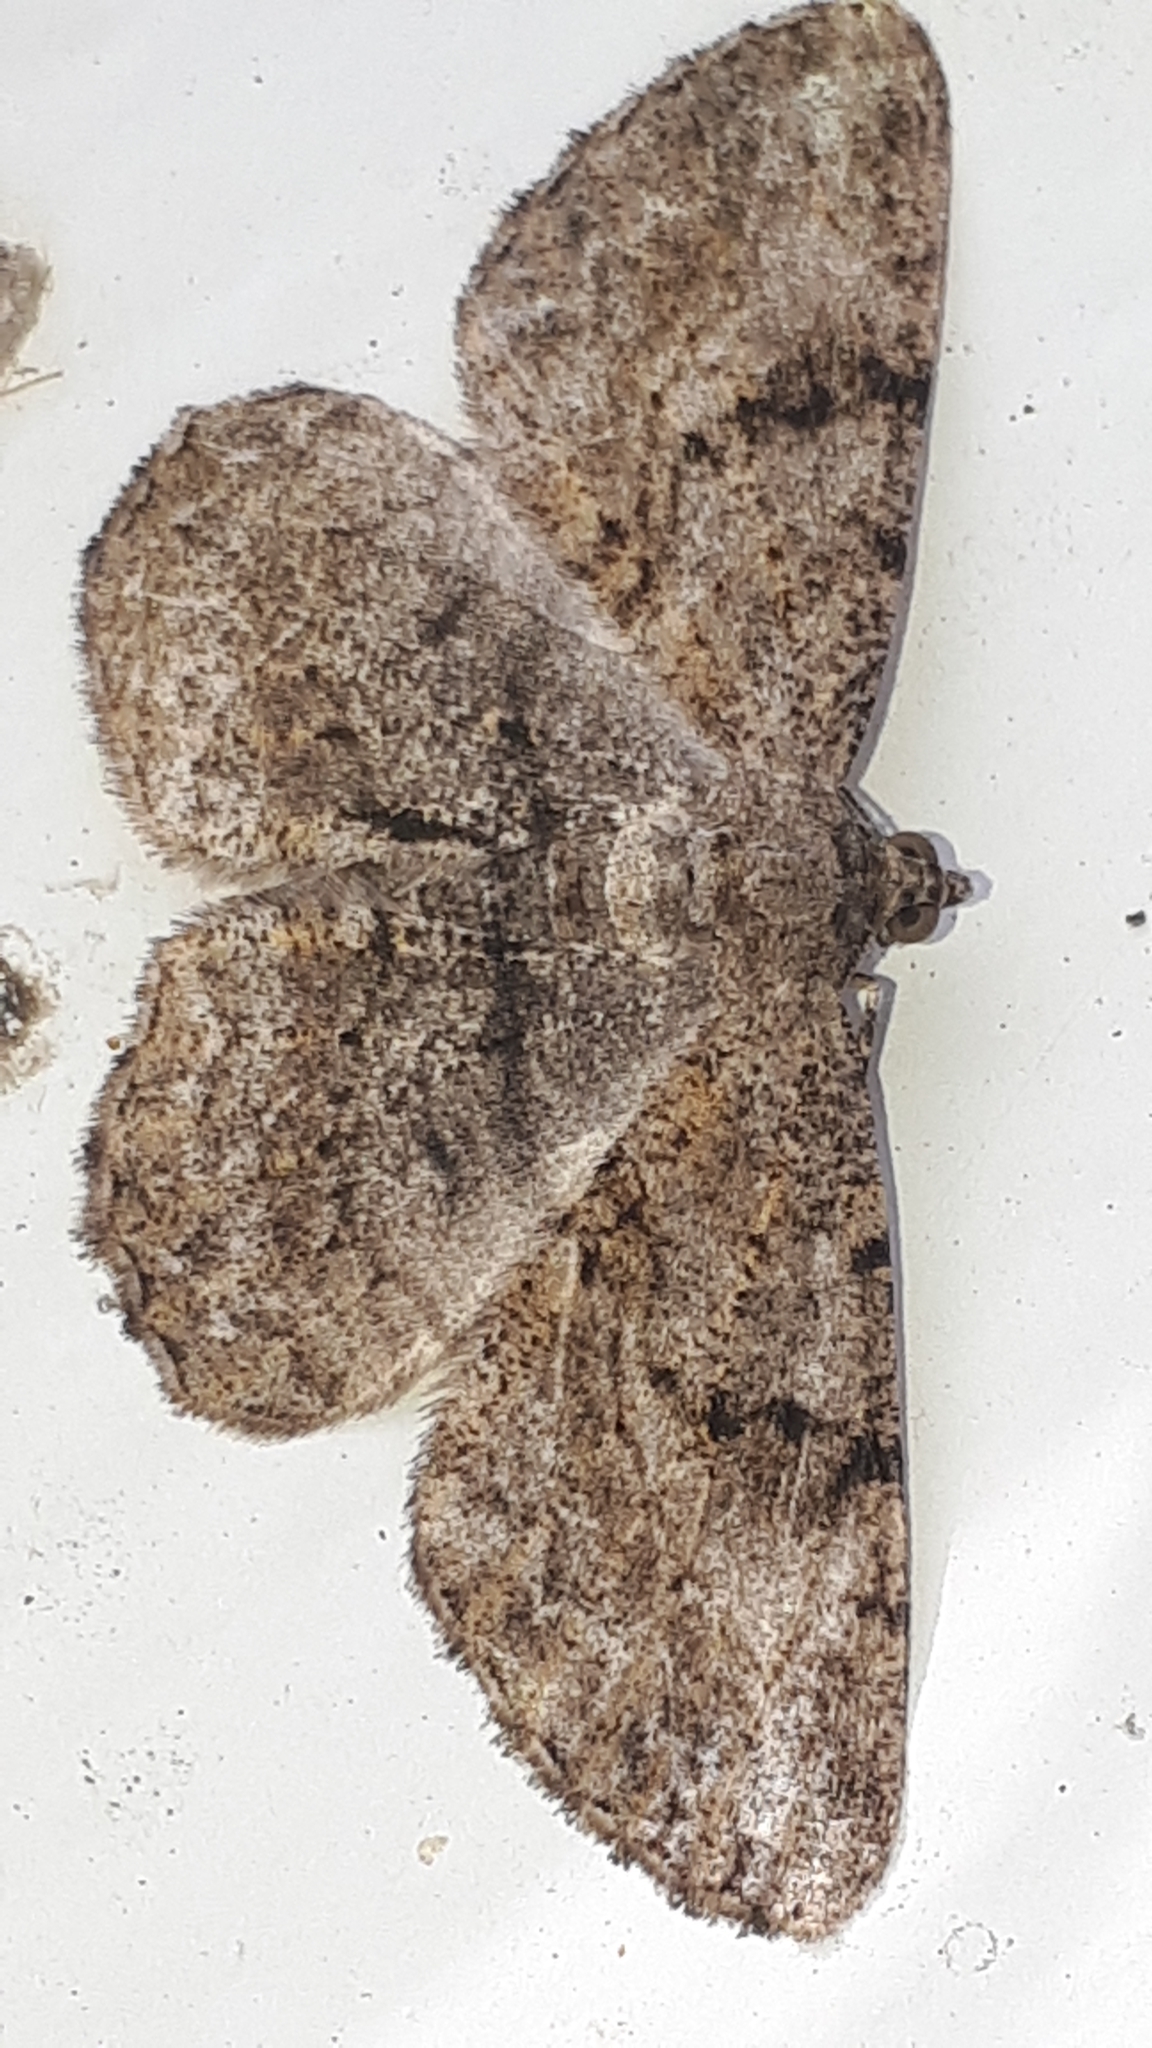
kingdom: Animalia
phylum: Arthropoda
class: Insecta
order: Lepidoptera
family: Geometridae
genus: Peribatodes
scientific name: Peribatodes rhomboidaria
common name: Willow beauty
